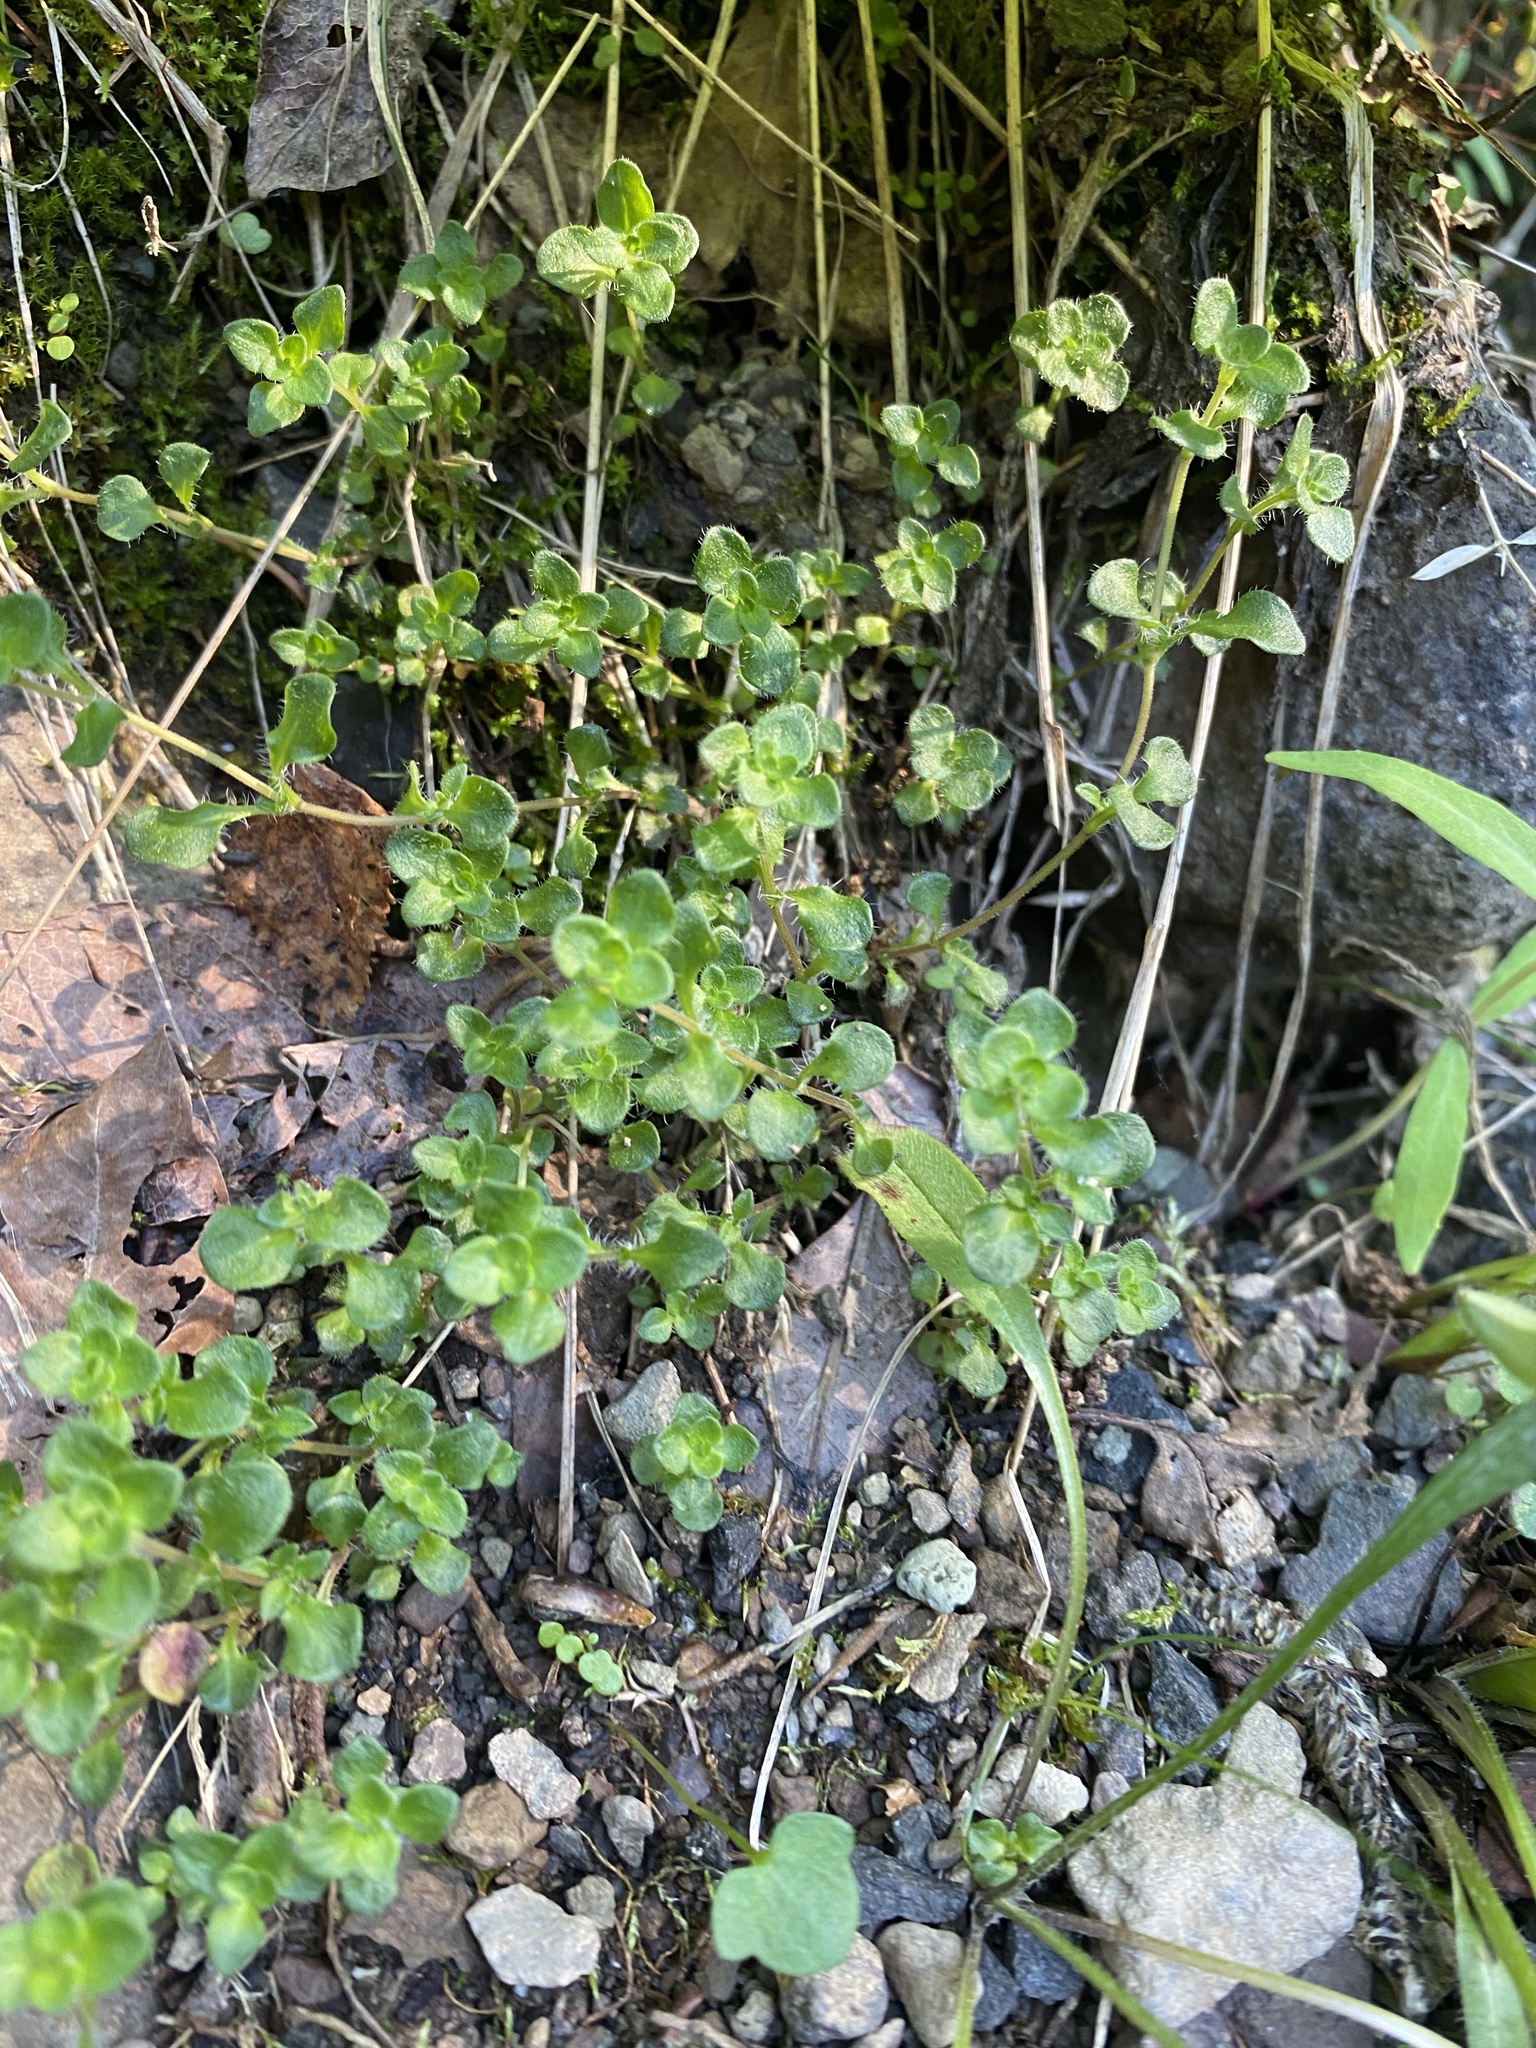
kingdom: Plantae
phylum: Tracheophyta
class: Magnoliopsida
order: Lamiales
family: Lamiaceae
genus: Thymus
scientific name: Thymus reverdattoanus
